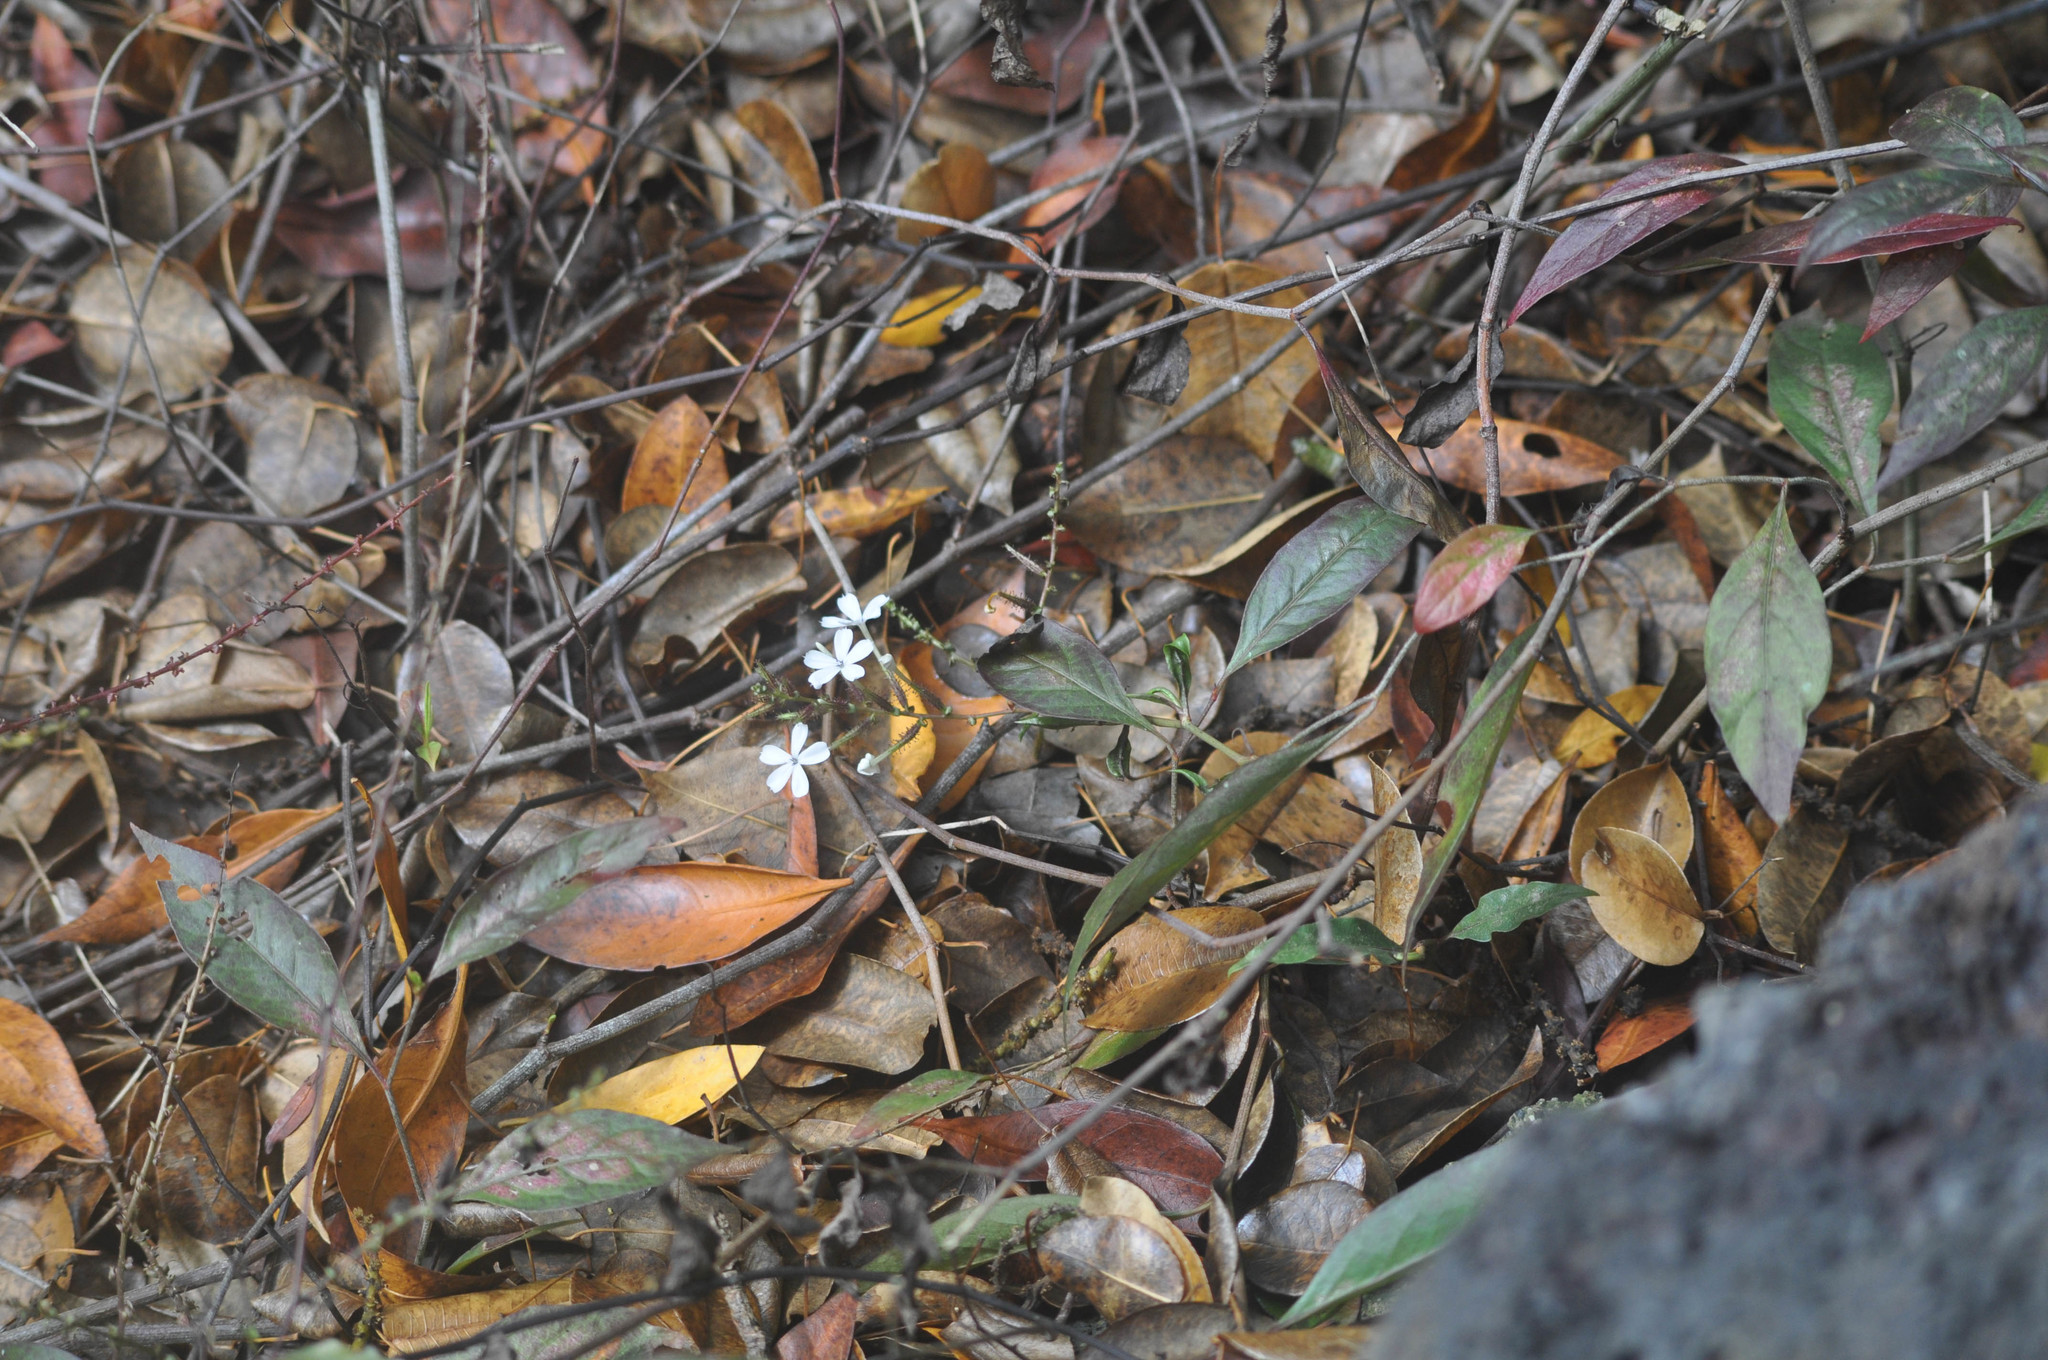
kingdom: Plantae
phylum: Tracheophyta
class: Magnoliopsida
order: Caryophyllales
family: Plumbaginaceae
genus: Plumbago
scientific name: Plumbago zeylanica
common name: Doctorbush
